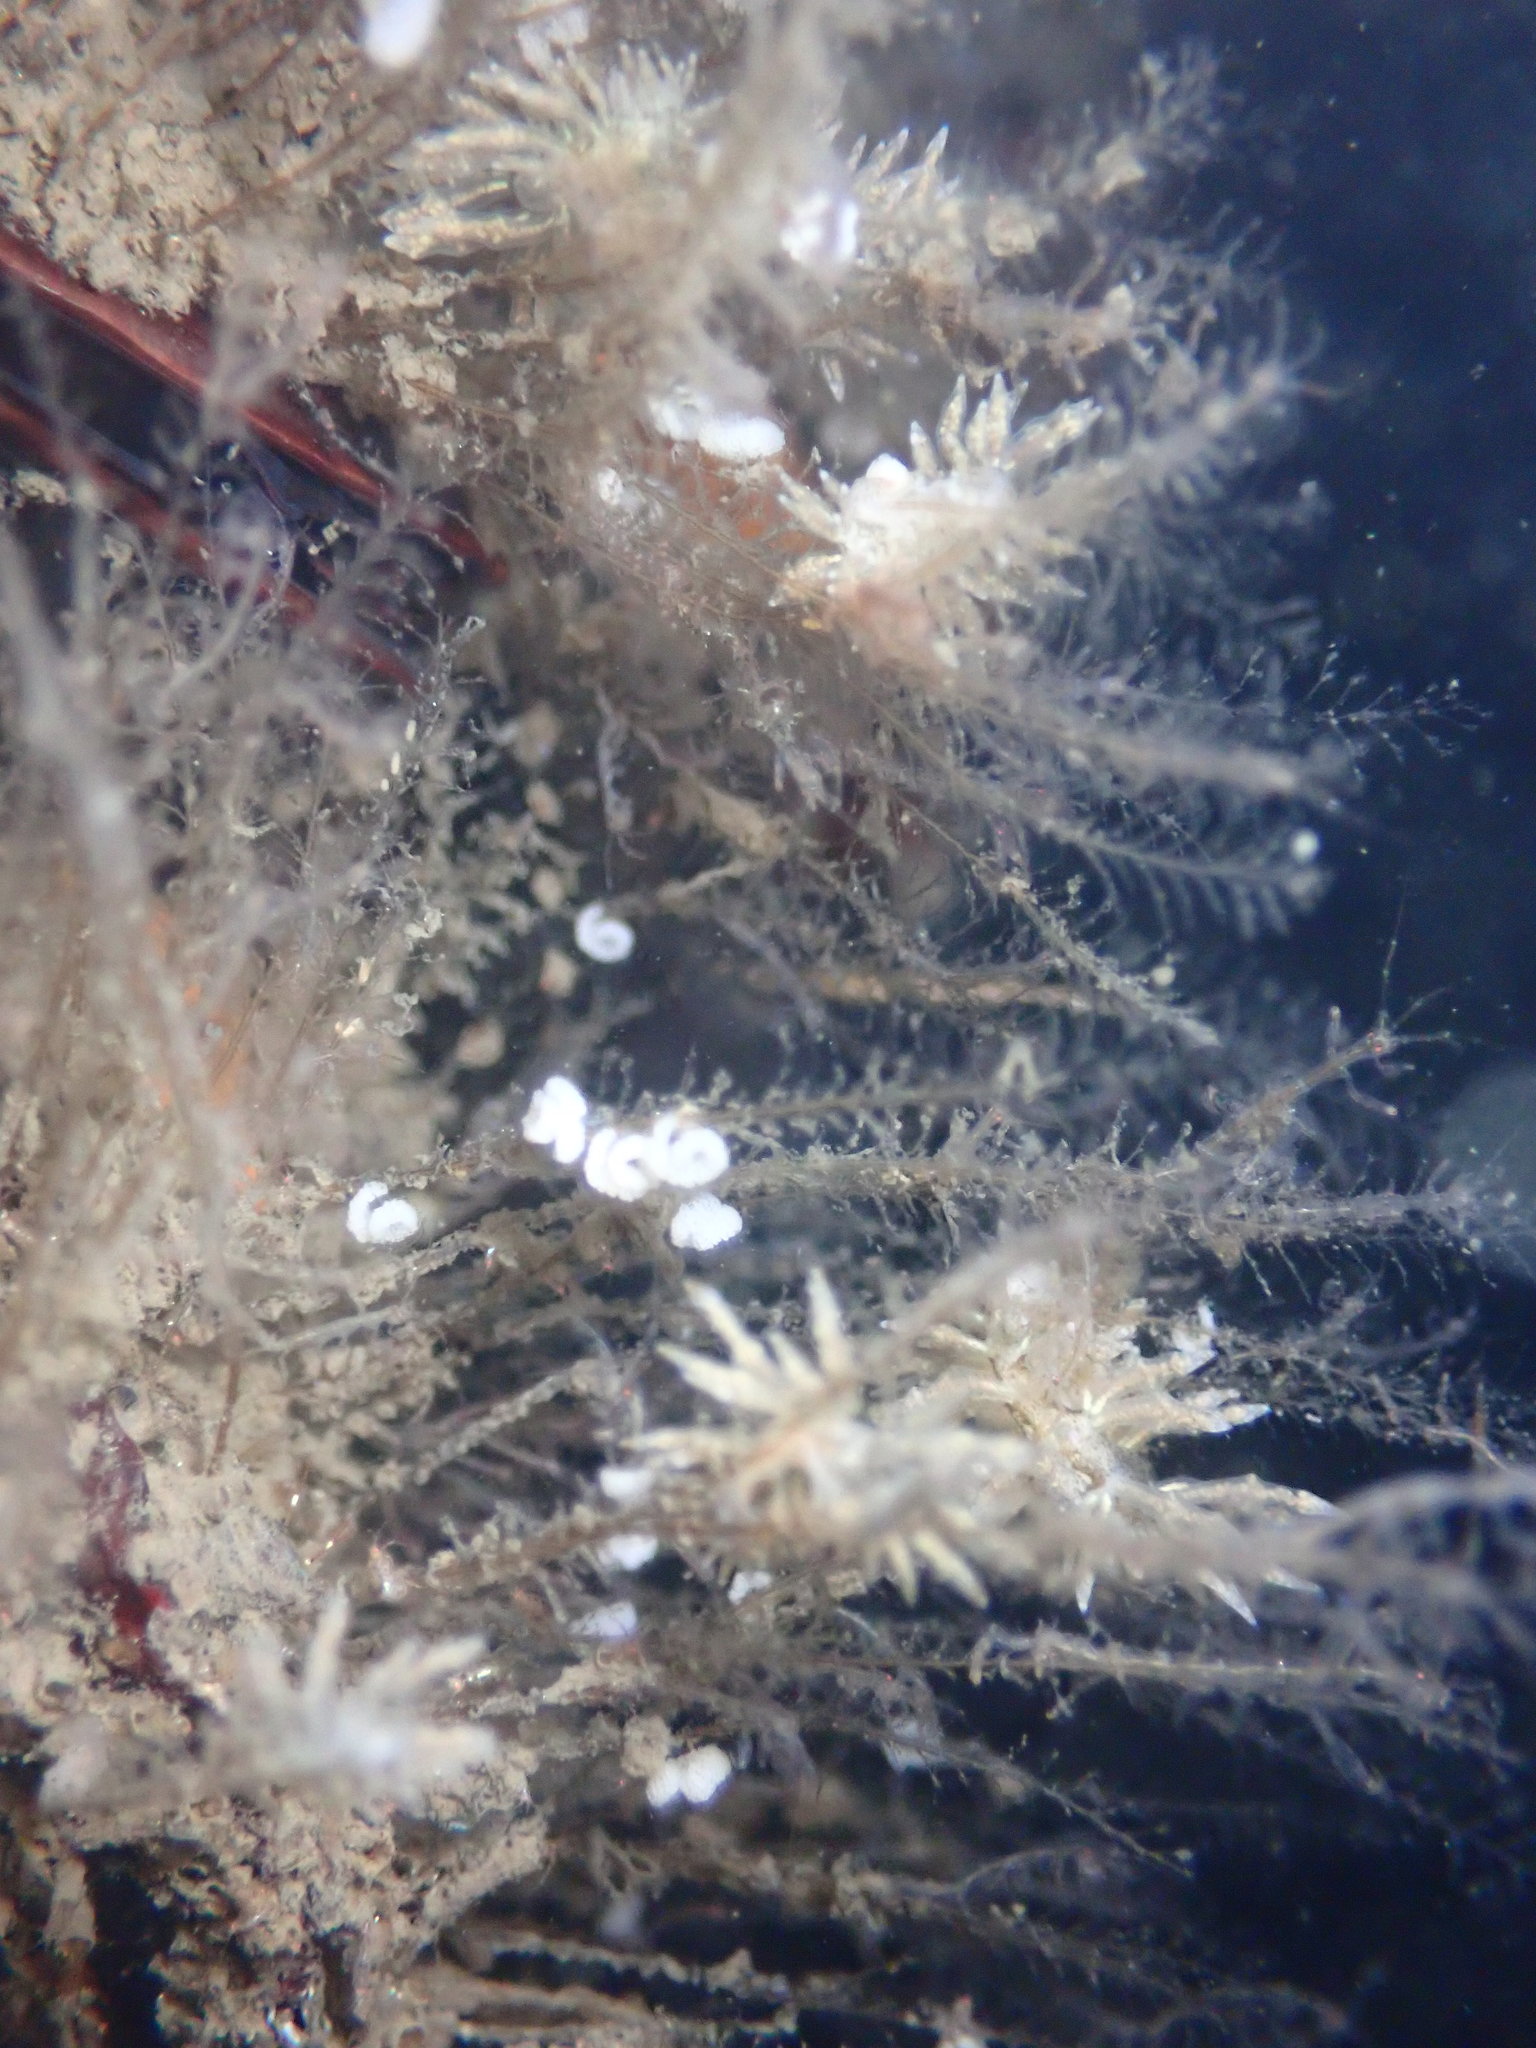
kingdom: Animalia
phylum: Mollusca
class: Gastropoda
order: Nudibranchia
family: Eubranchidae
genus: Eubranchus
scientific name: Eubranchus rustyus
